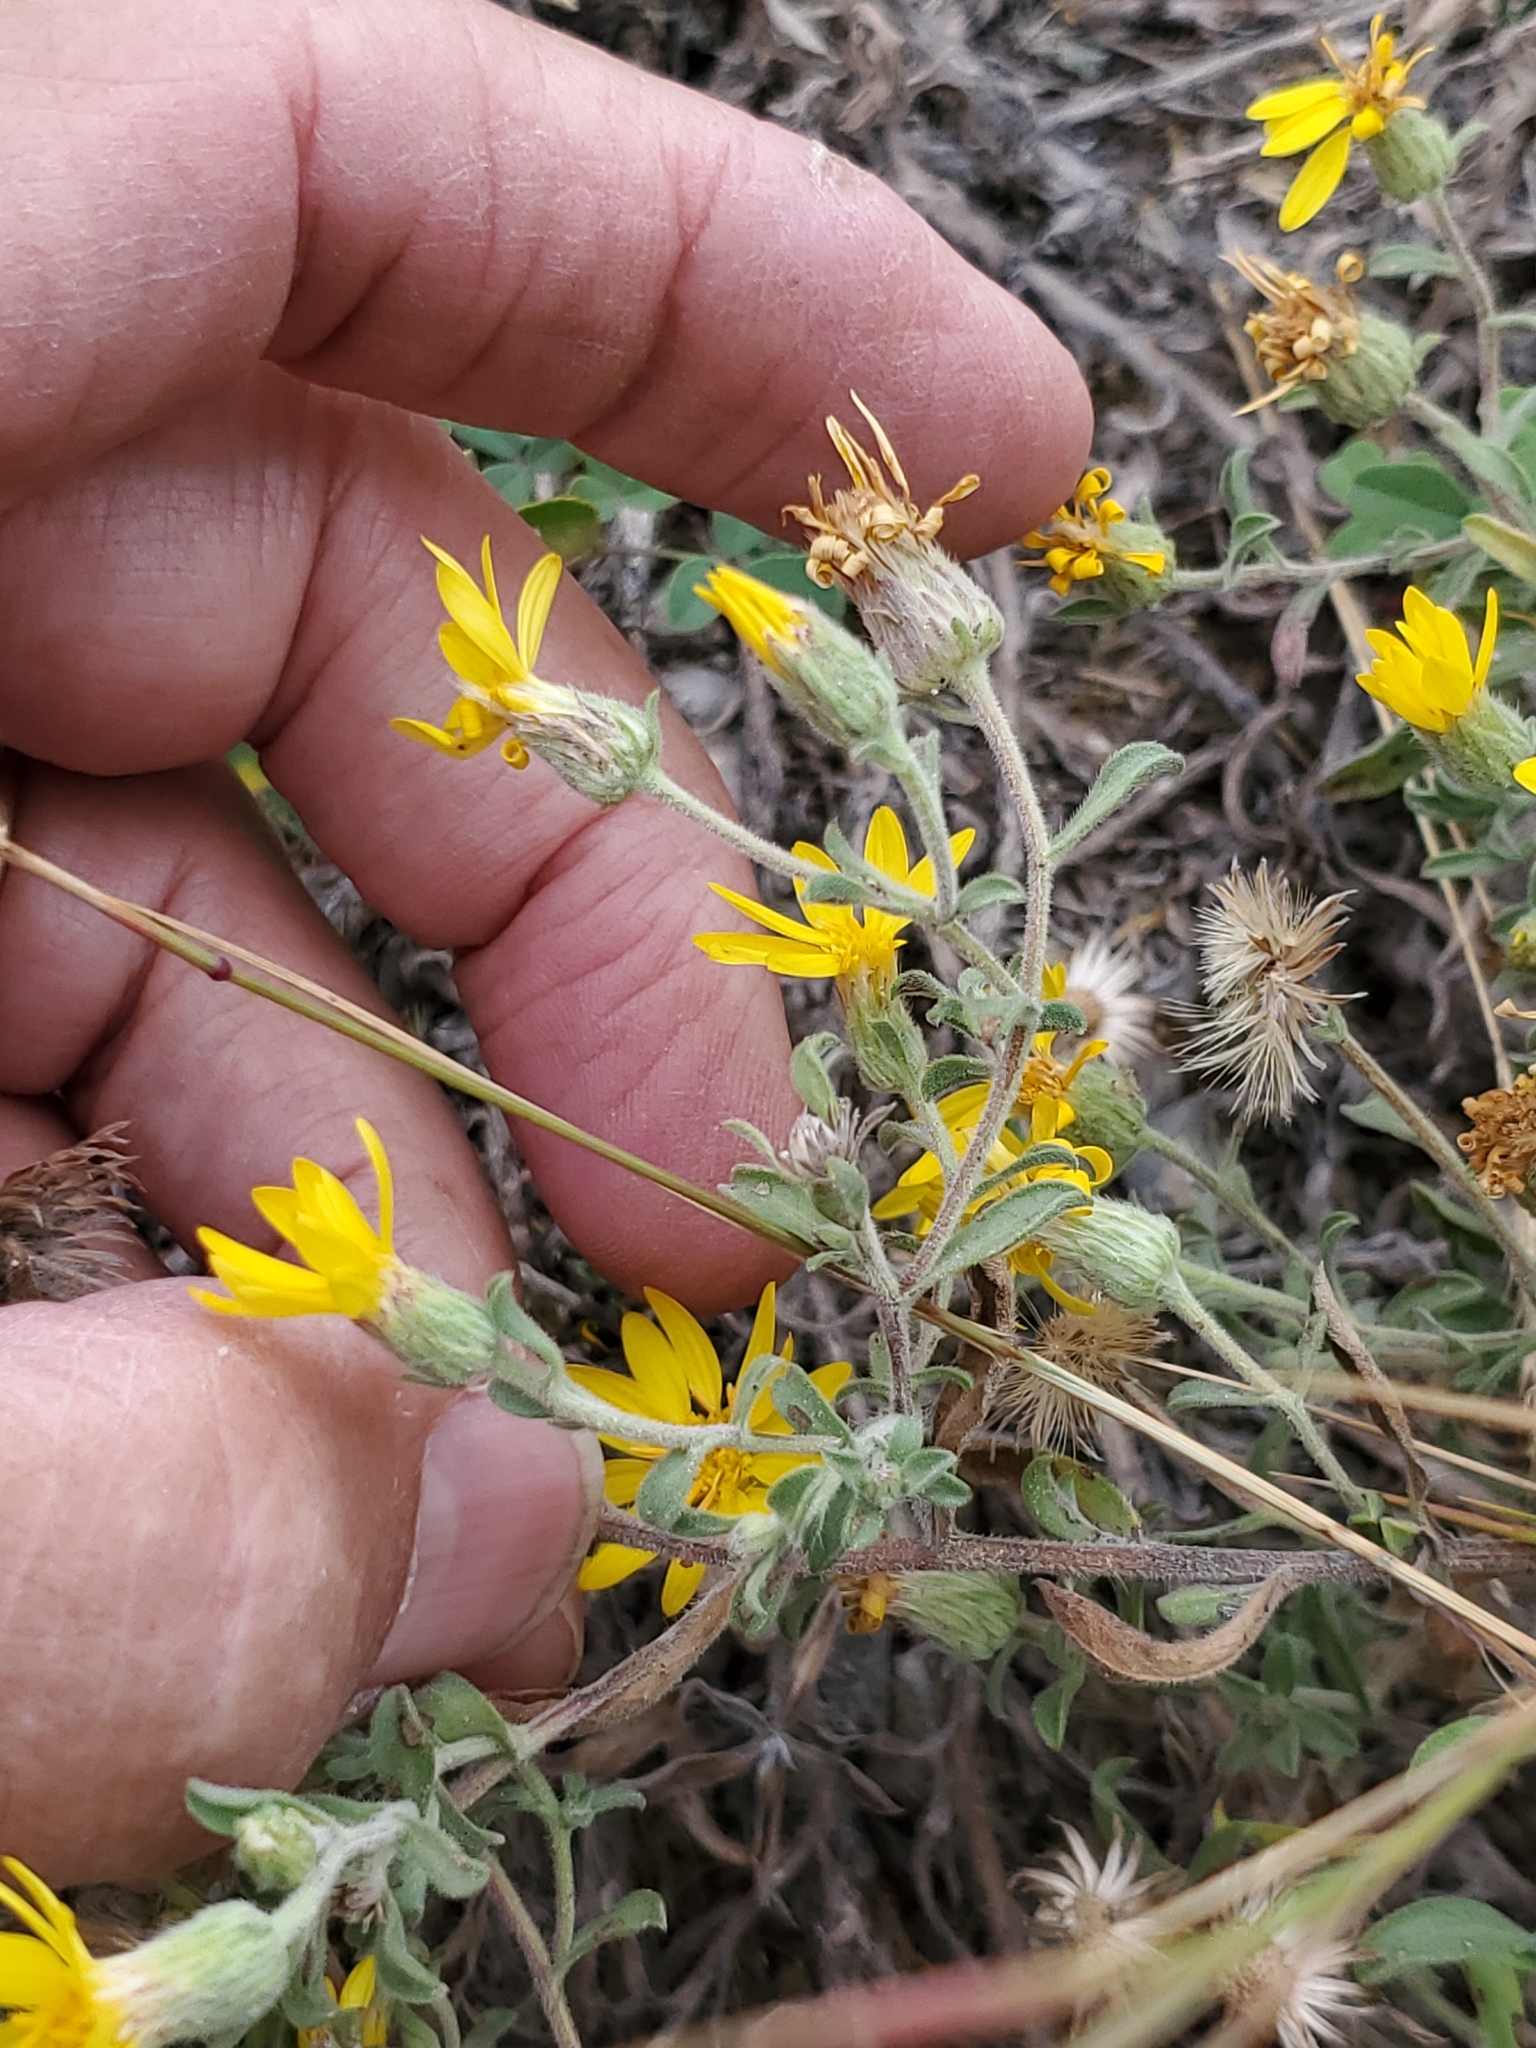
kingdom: Plantae
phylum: Tracheophyta
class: Magnoliopsida
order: Asterales
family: Asteraceae
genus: Heterotheca
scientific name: Heterotheca villosa
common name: Hairy false goldenaster
